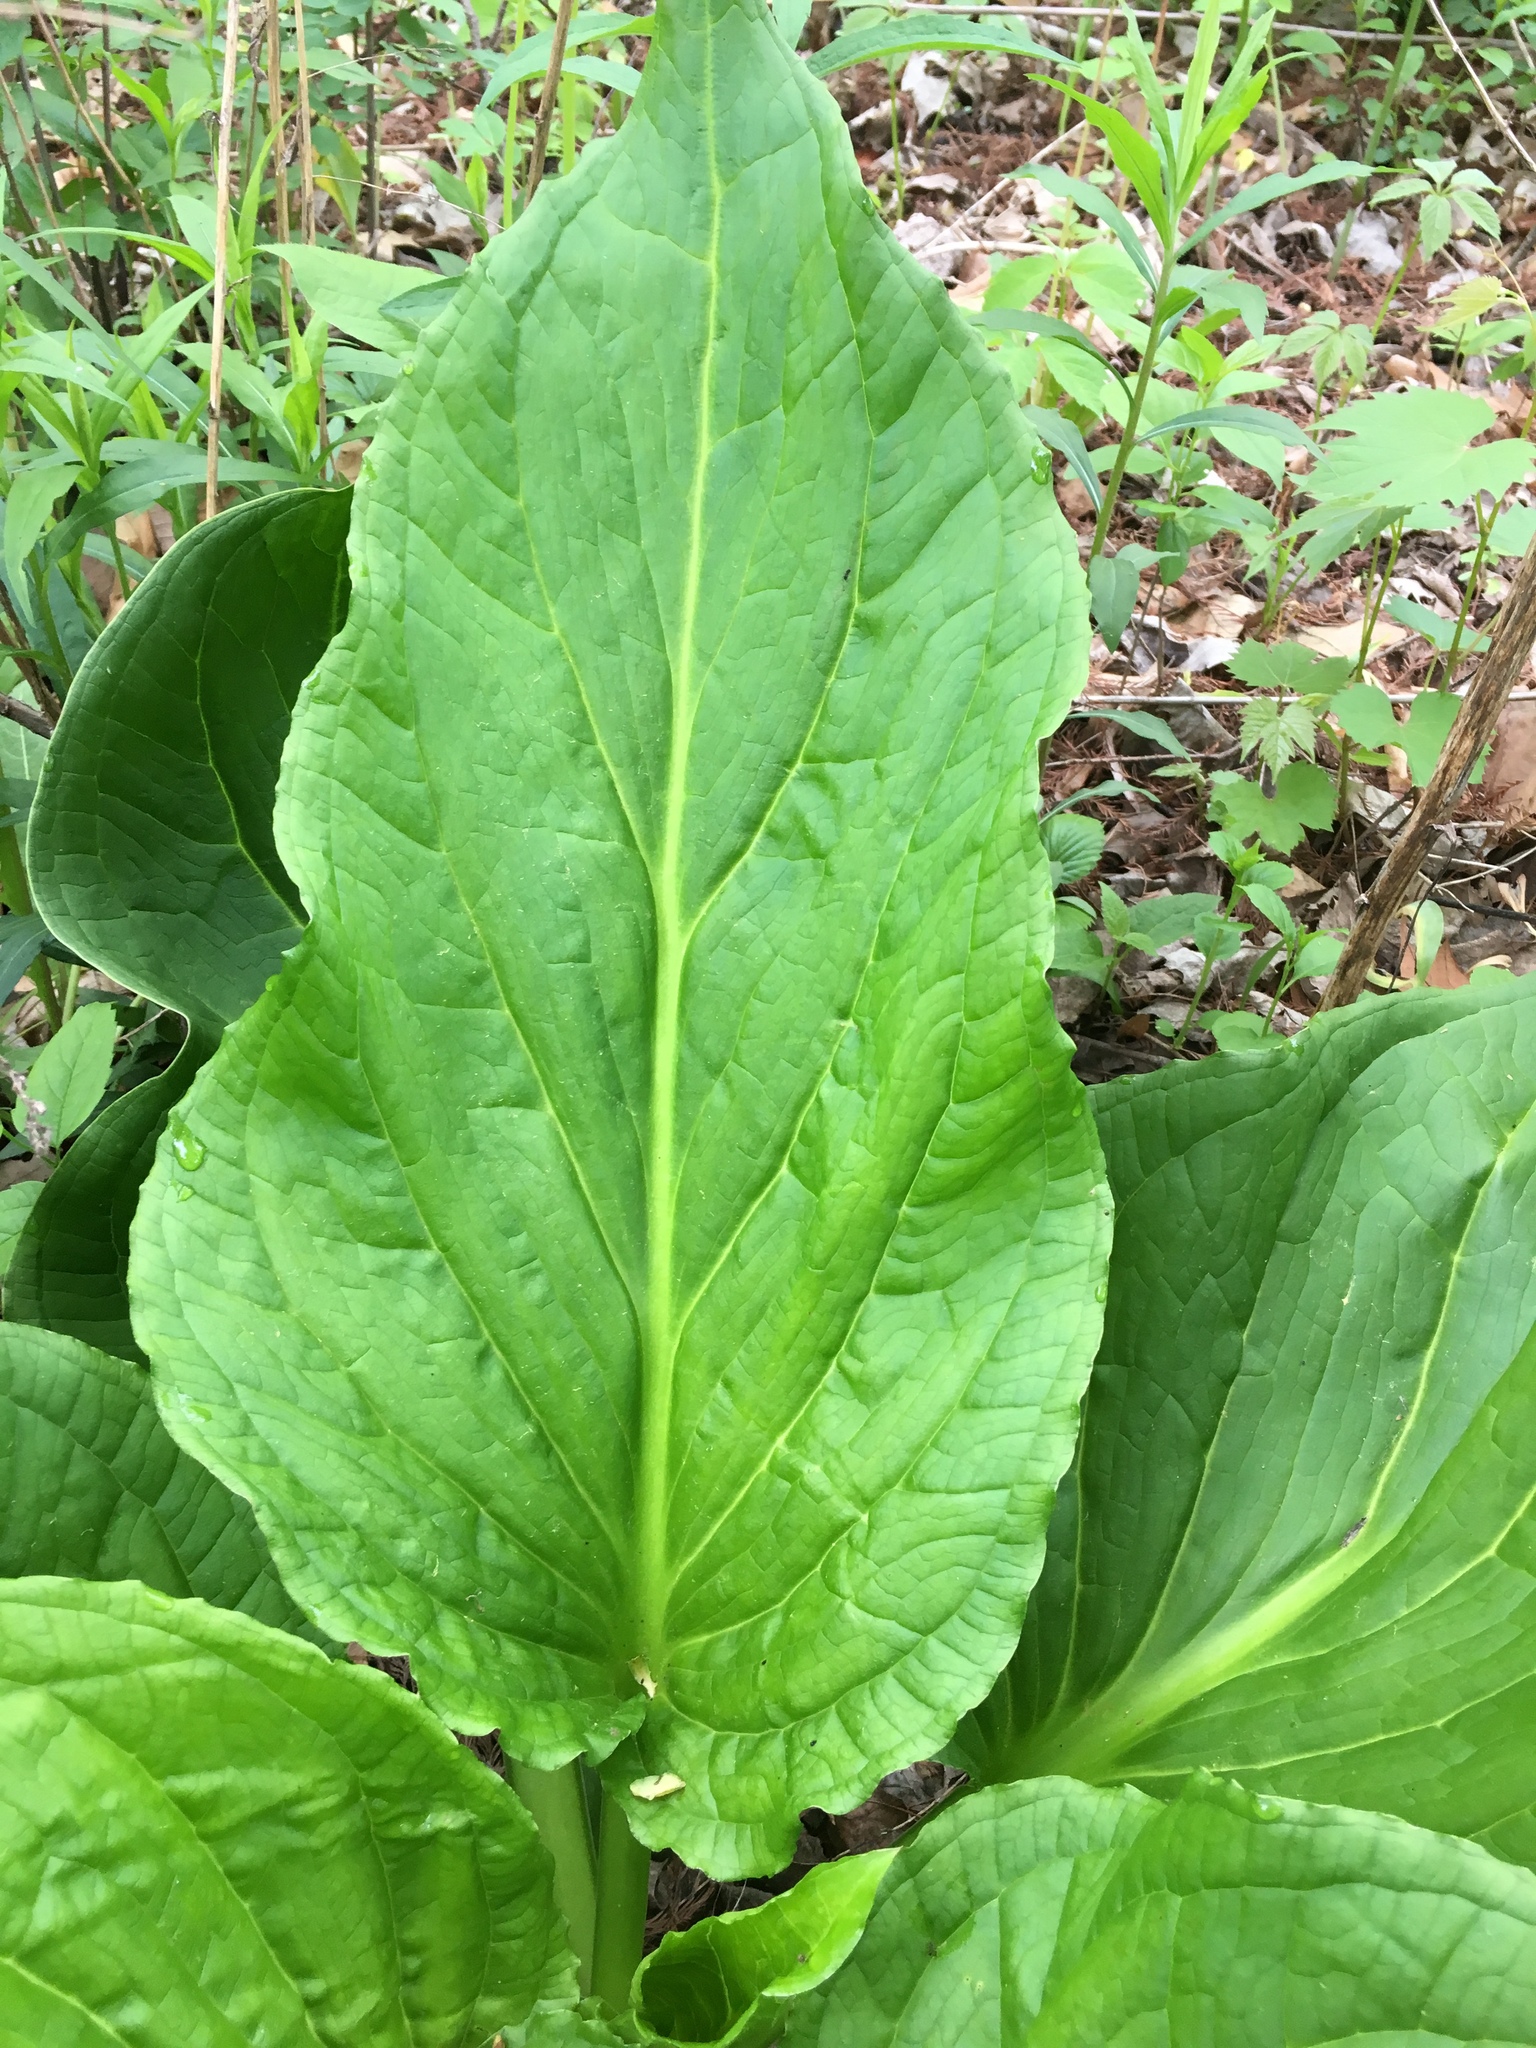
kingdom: Plantae
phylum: Tracheophyta
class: Liliopsida
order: Alismatales
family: Araceae
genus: Symplocarpus
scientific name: Symplocarpus foetidus
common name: Eastern skunk cabbage
